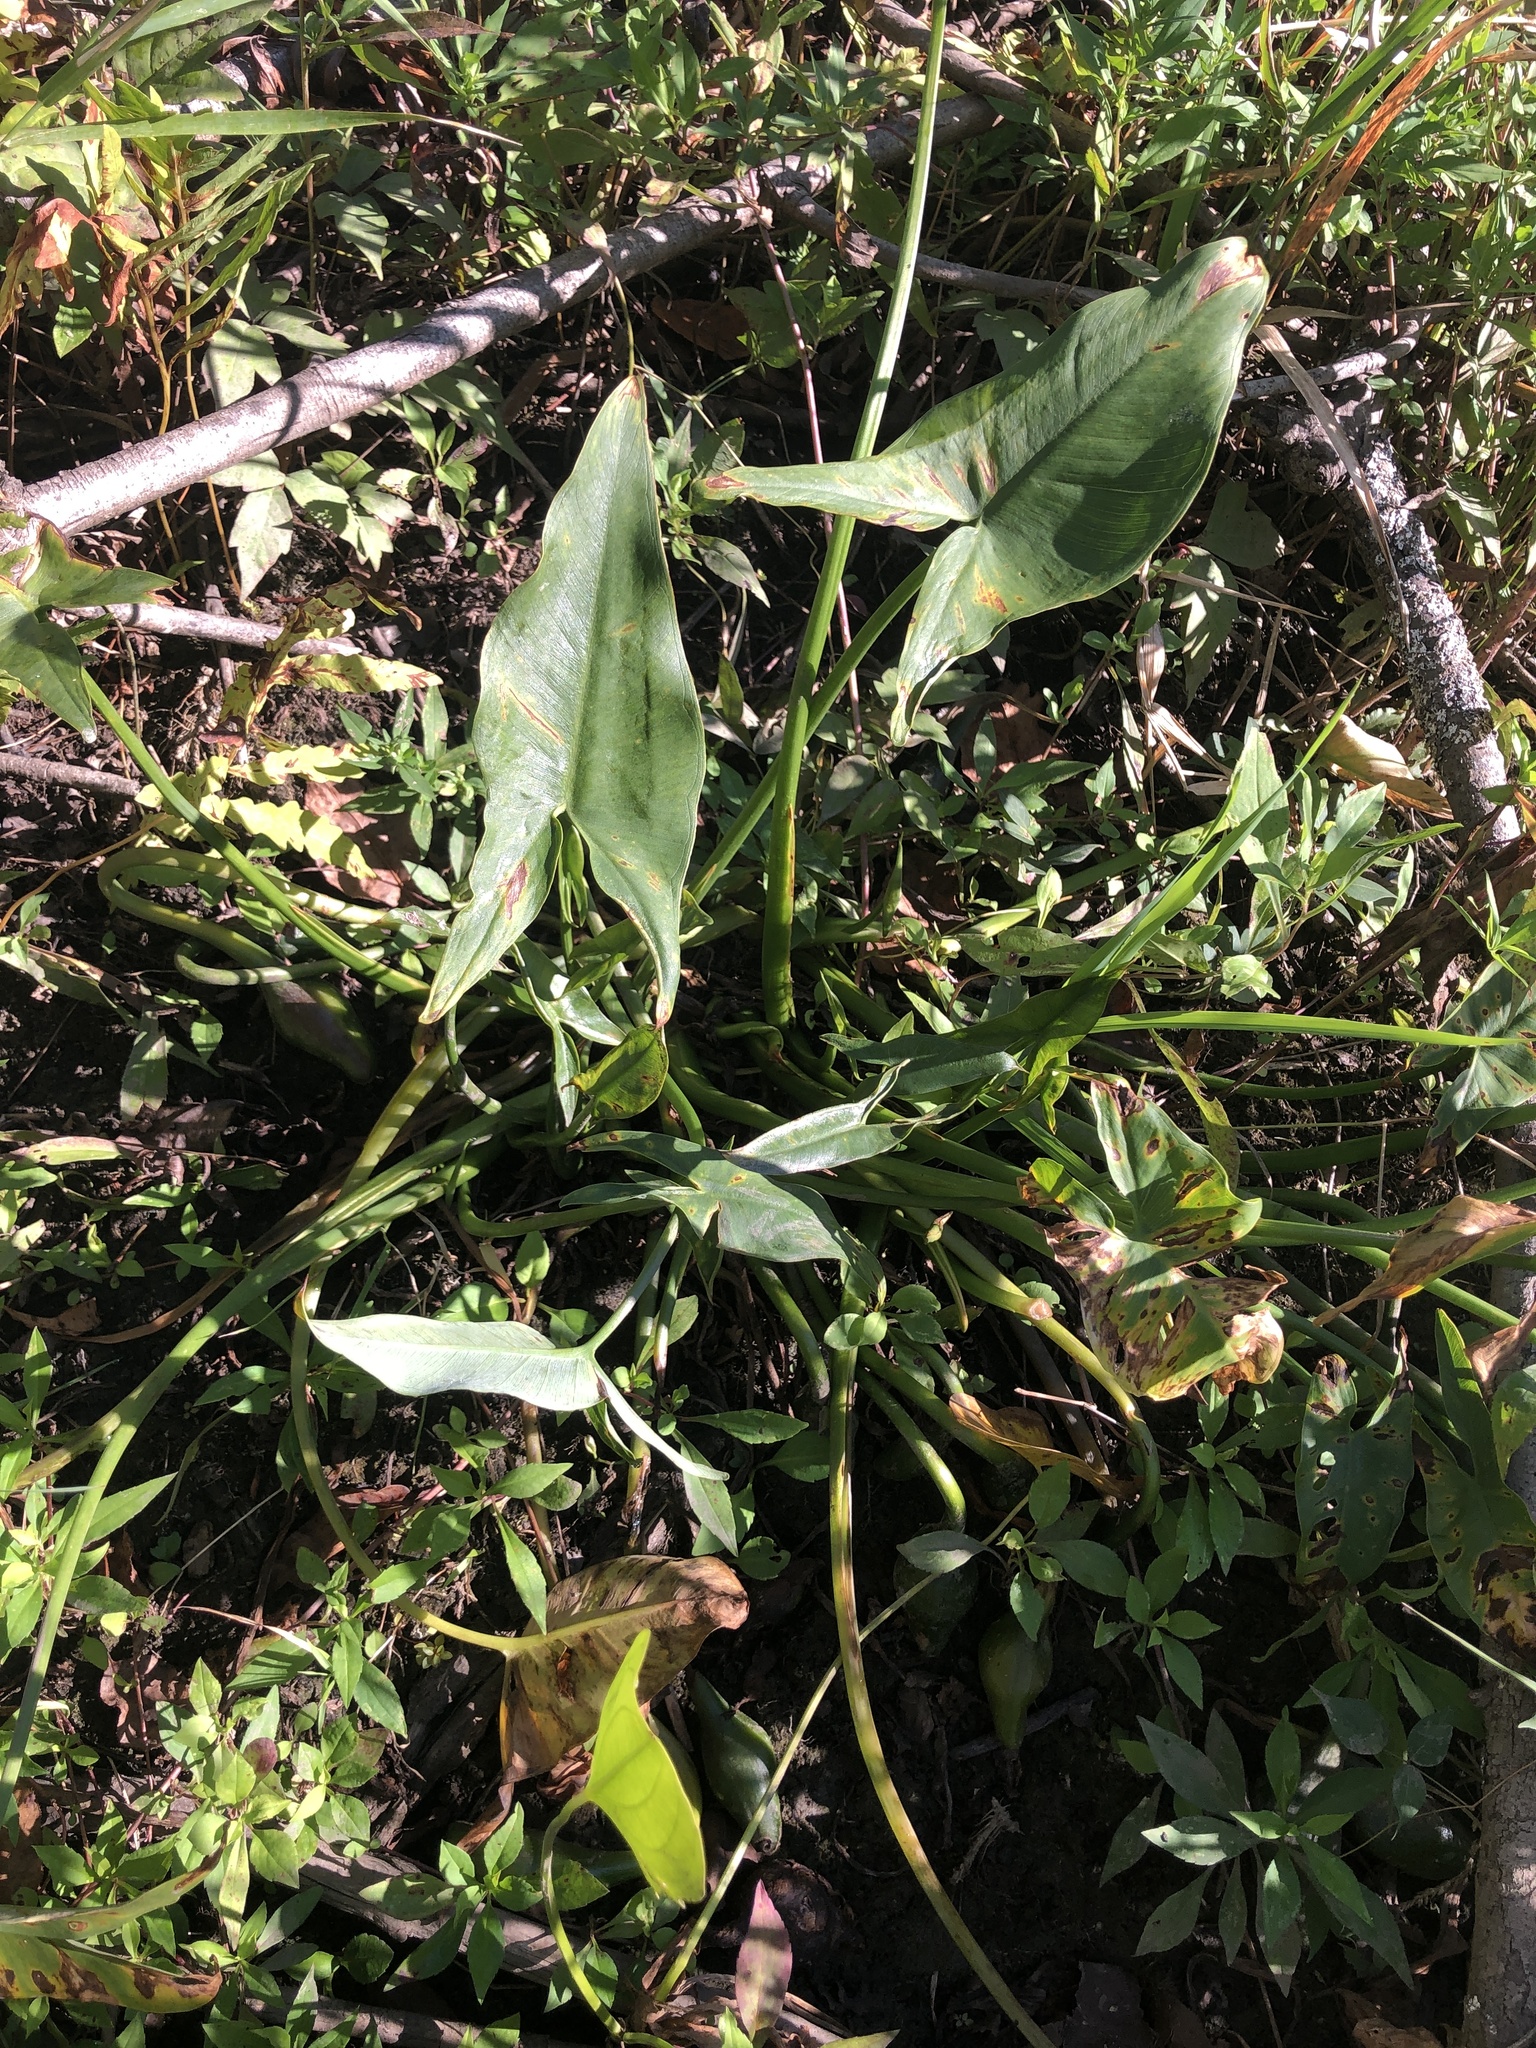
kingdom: Plantae
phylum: Tracheophyta
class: Liliopsida
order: Alismatales
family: Araceae
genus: Peltandra
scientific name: Peltandra virginica
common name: Arrow arum
